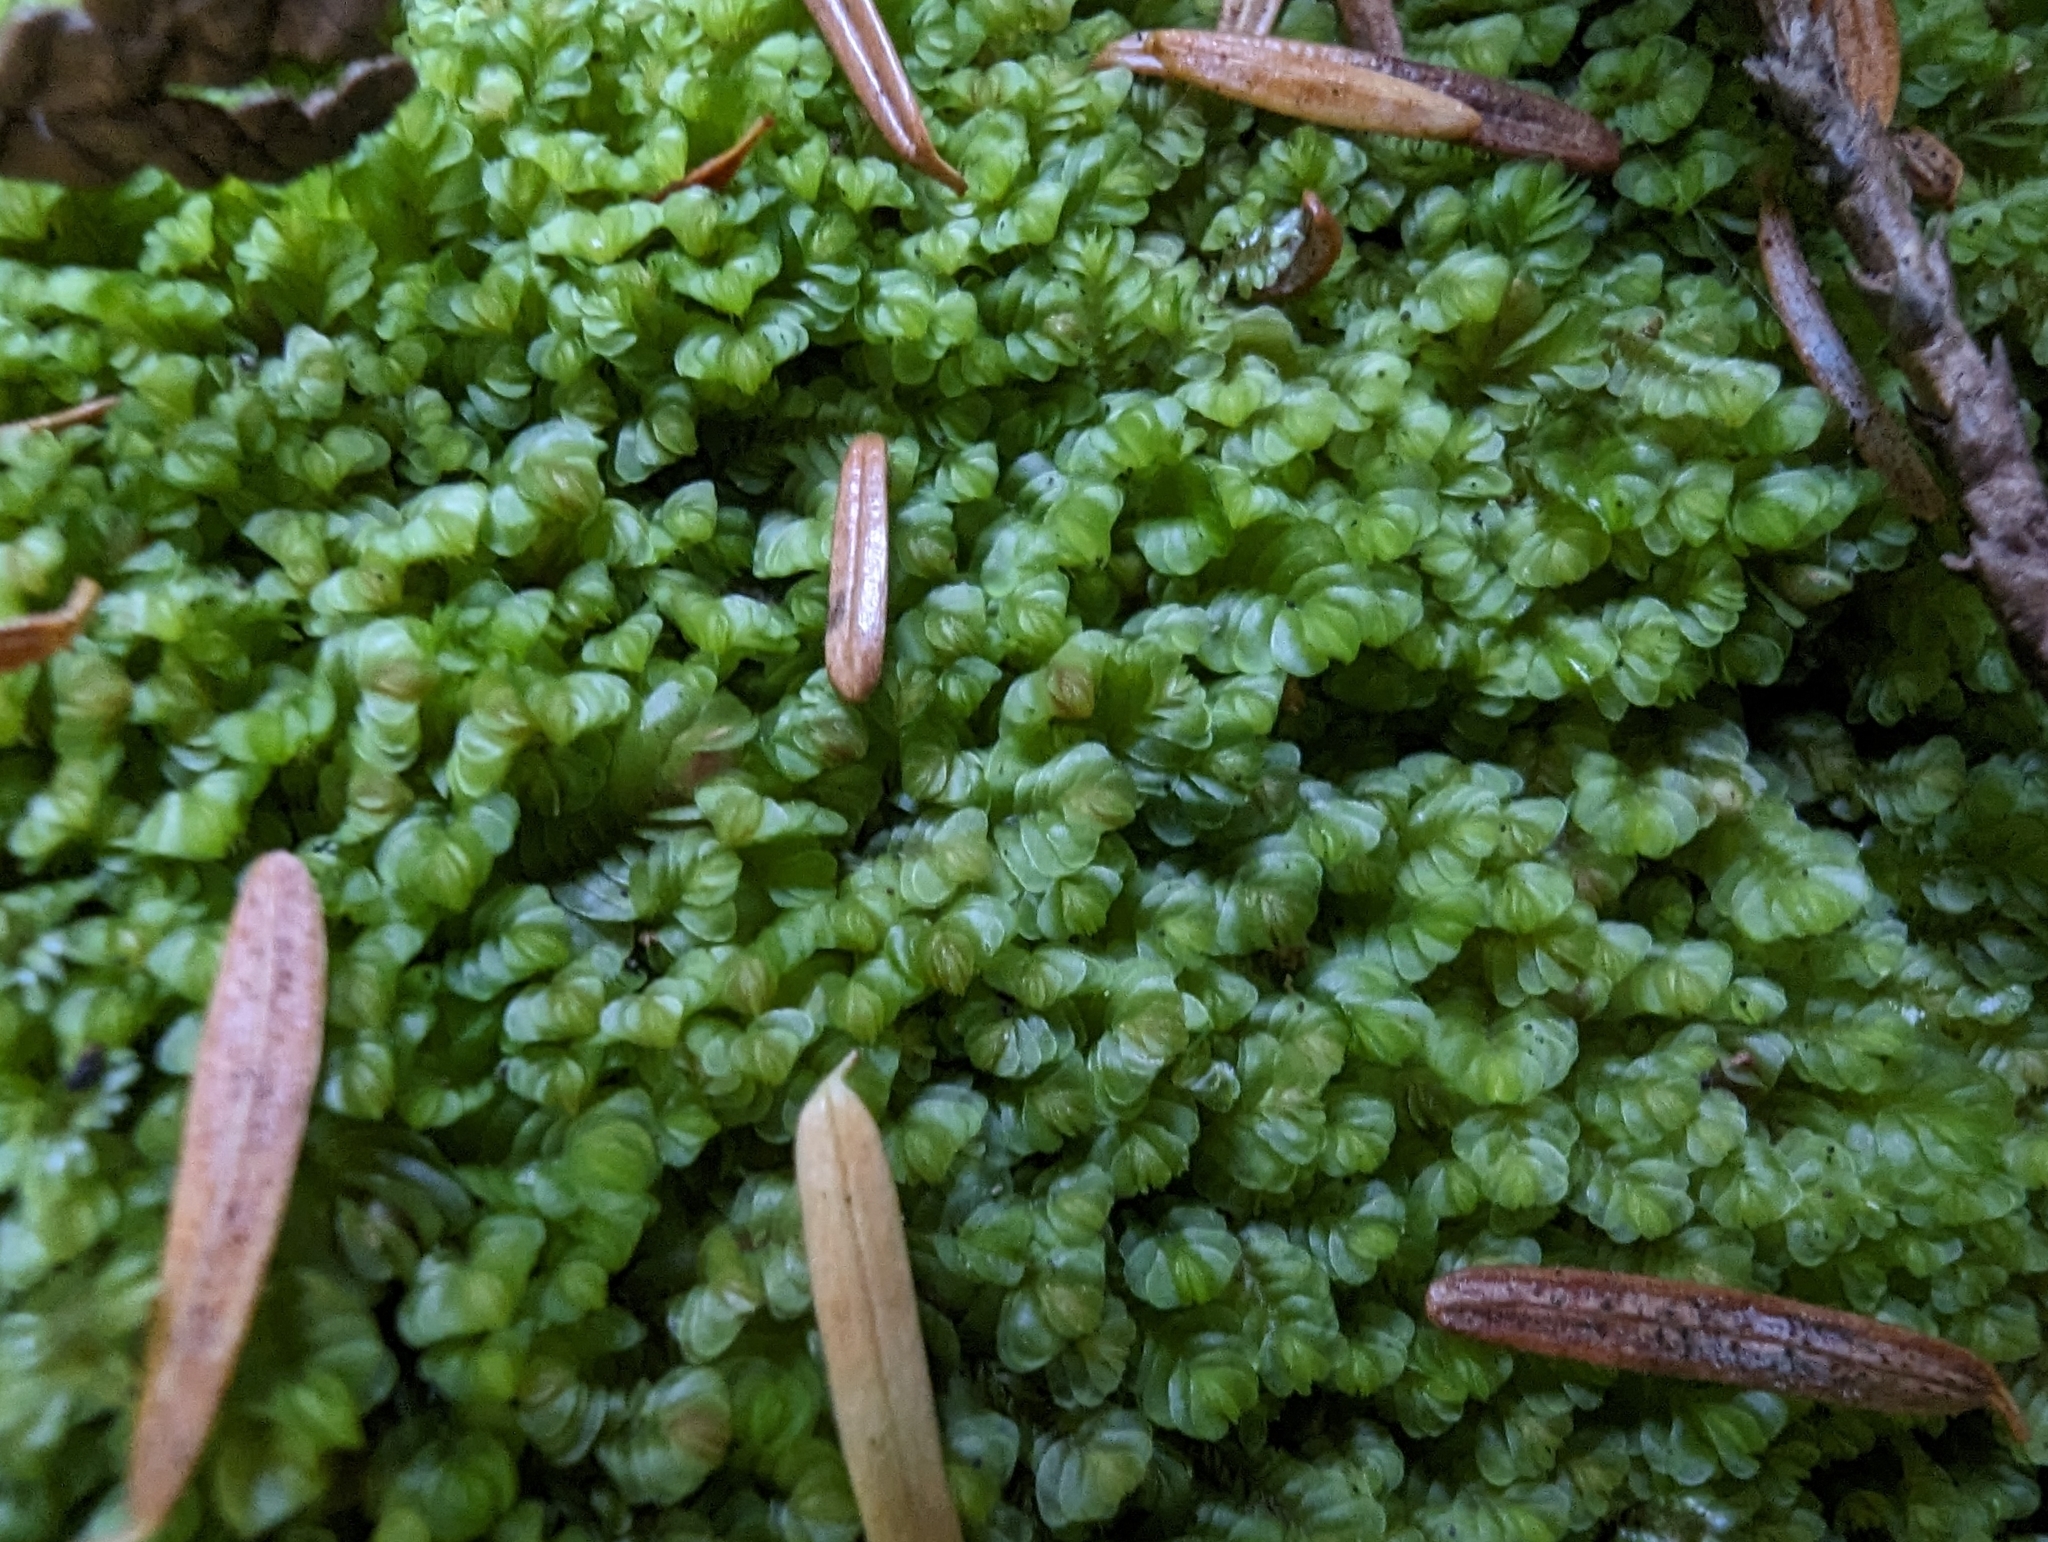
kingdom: Plantae
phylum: Marchantiophyta
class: Jungermanniopsida
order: Jungermanniales
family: Myliaceae
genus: Mylia
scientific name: Mylia taylorii
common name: Taylor s flapwort
